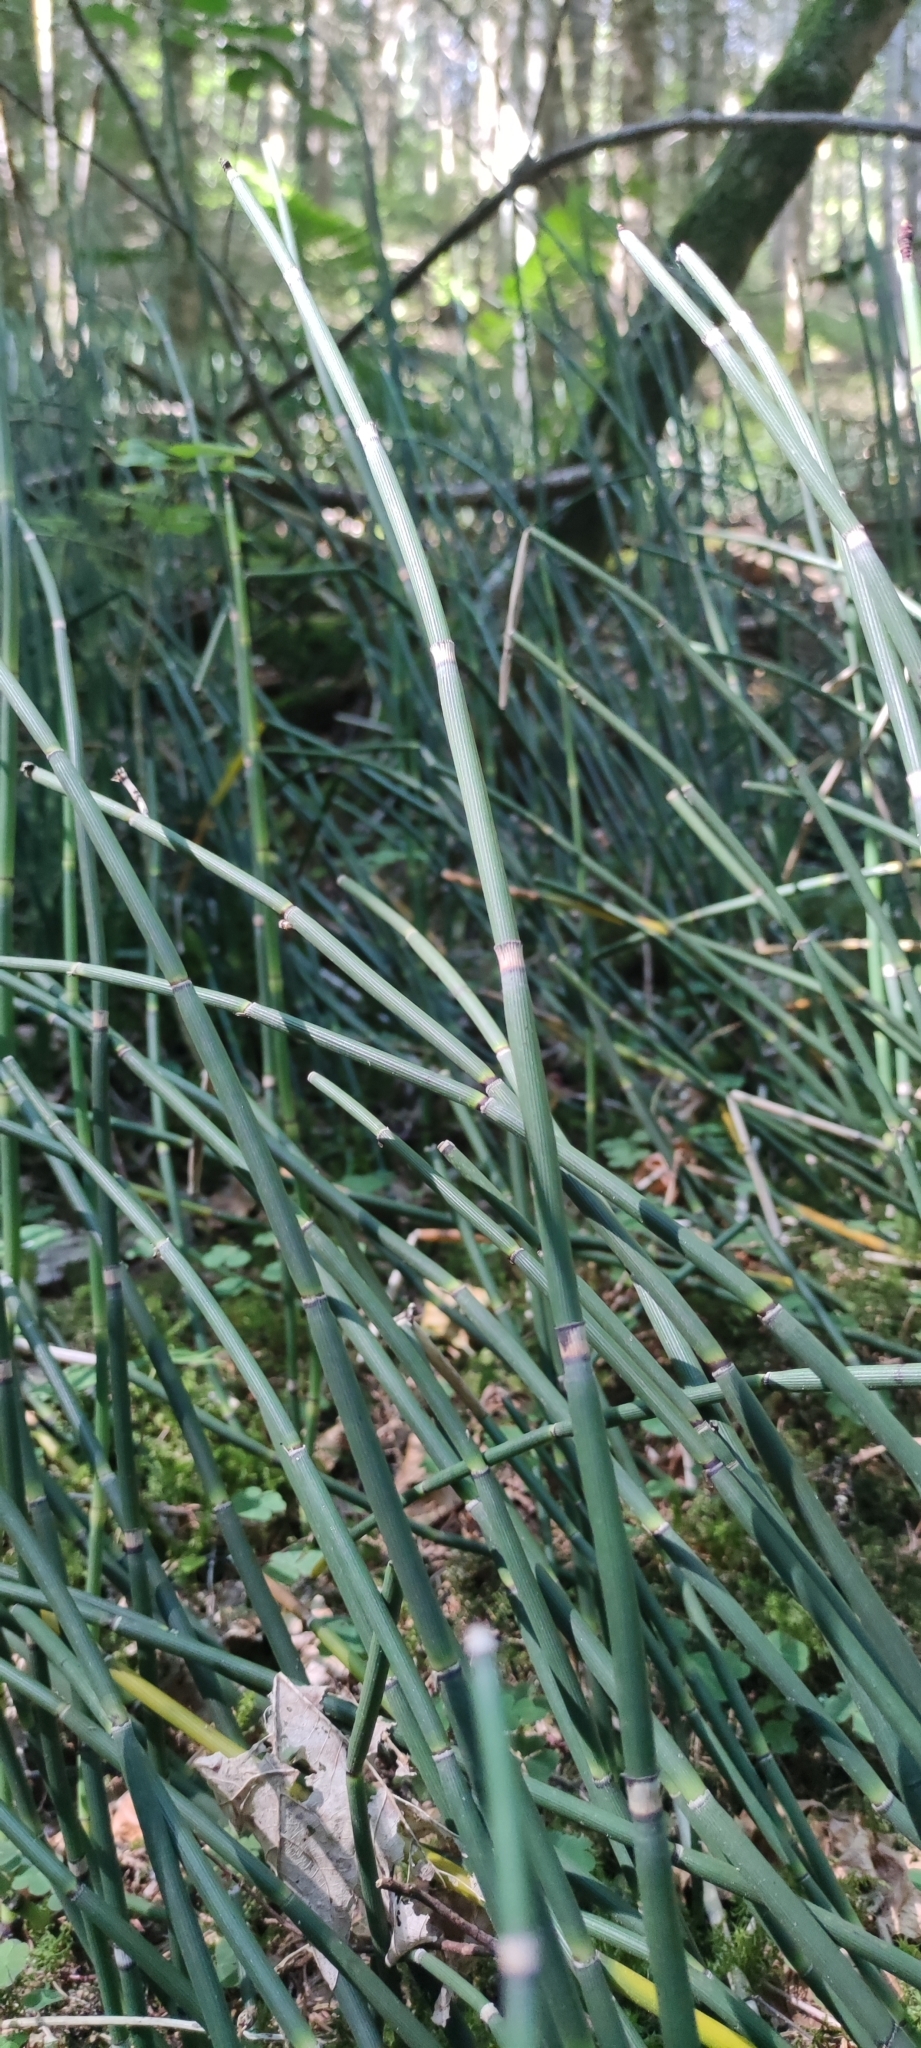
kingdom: Plantae
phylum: Tracheophyta
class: Polypodiopsida
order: Equisetales
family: Equisetaceae
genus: Equisetum
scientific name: Equisetum hyemale
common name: Rough horsetail
